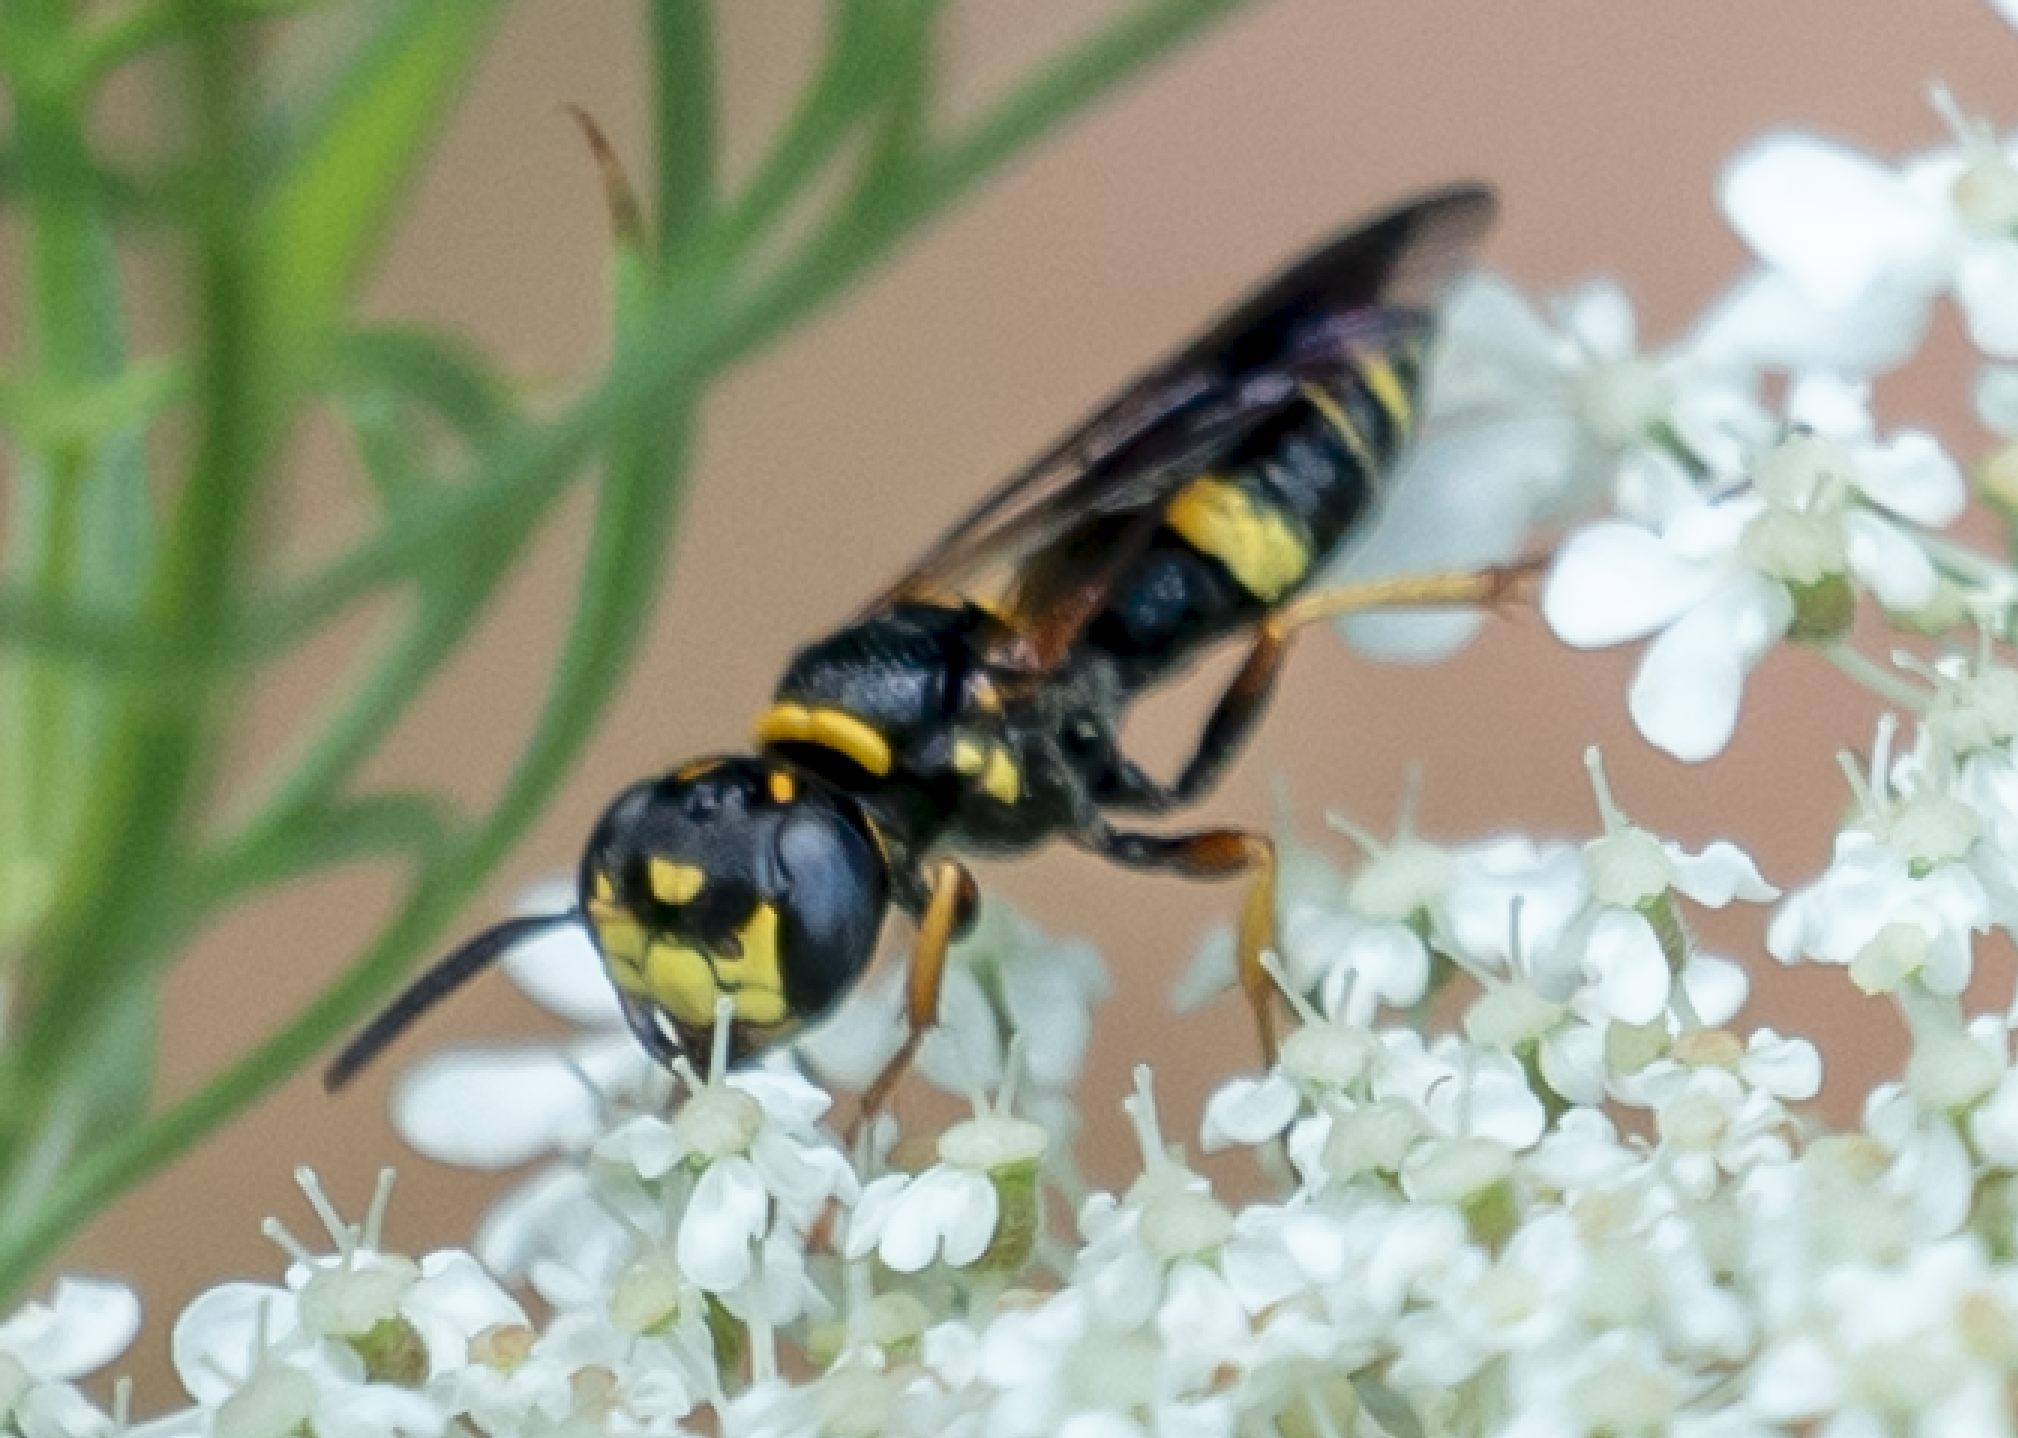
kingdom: Animalia
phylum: Arthropoda
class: Insecta
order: Hymenoptera
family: Crabronidae
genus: Philanthus
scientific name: Philanthus gibbosus
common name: Humped beewolf
